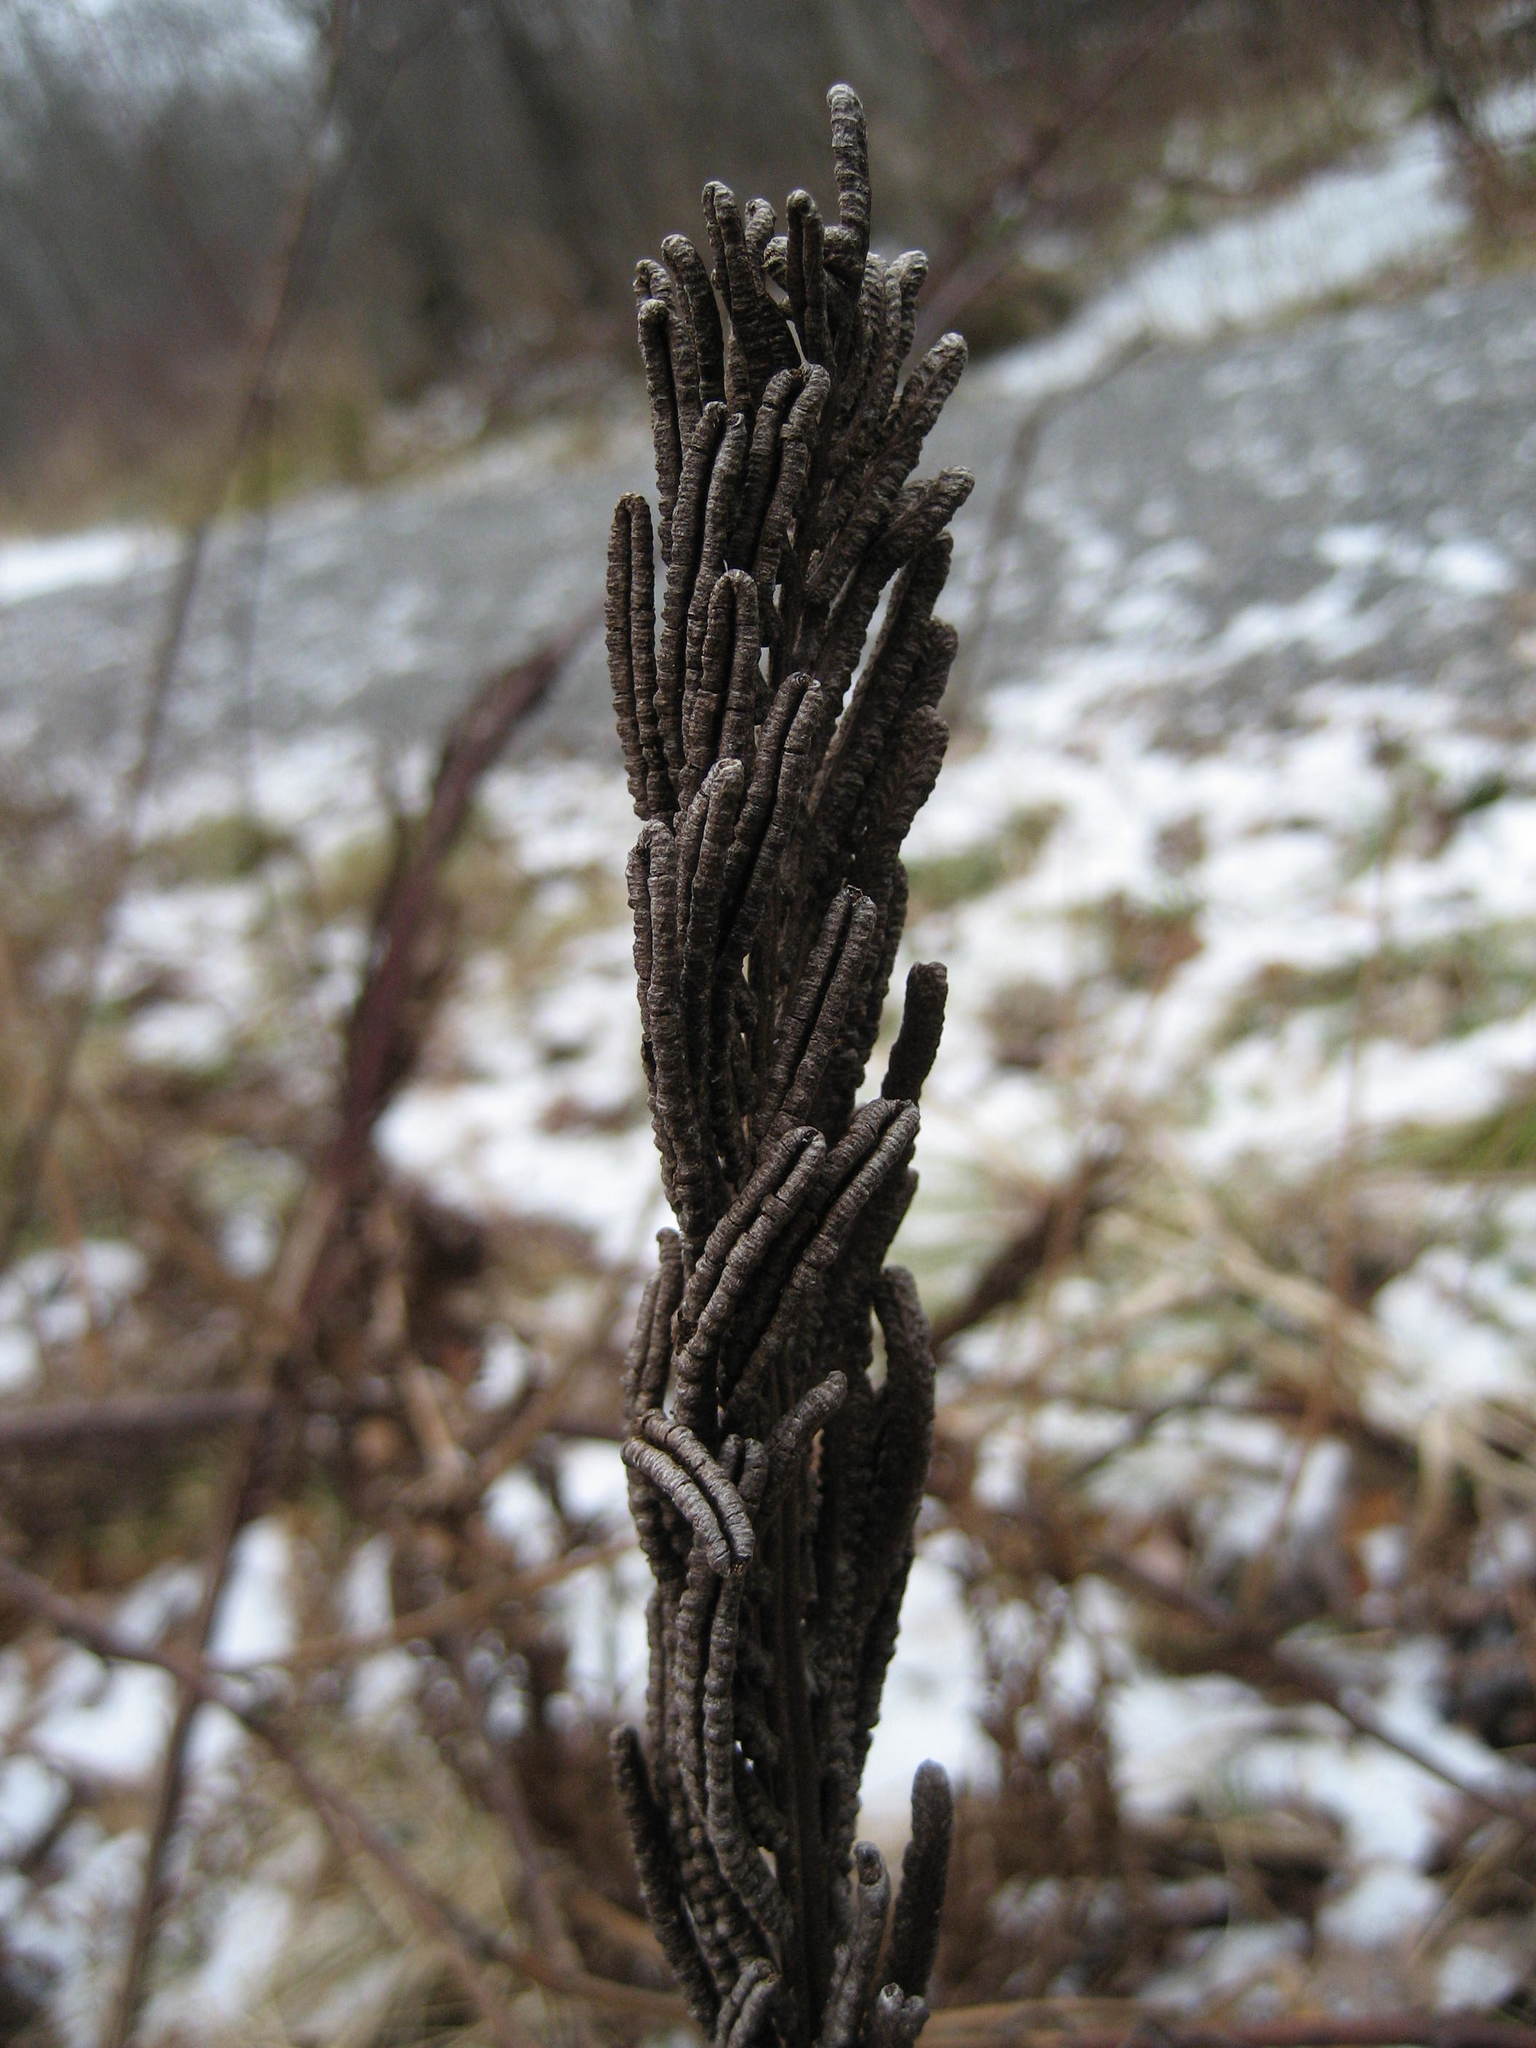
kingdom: Plantae
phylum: Tracheophyta
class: Polypodiopsida
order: Polypodiales
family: Onocleaceae
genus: Matteuccia
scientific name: Matteuccia struthiopteris
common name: Ostrich fern
